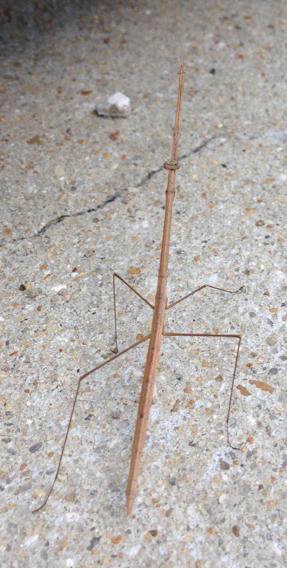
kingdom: Animalia
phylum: Arthropoda
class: Insecta
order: Mantodea
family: Thespidae
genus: Thesprotia
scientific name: Thesprotia graminis
